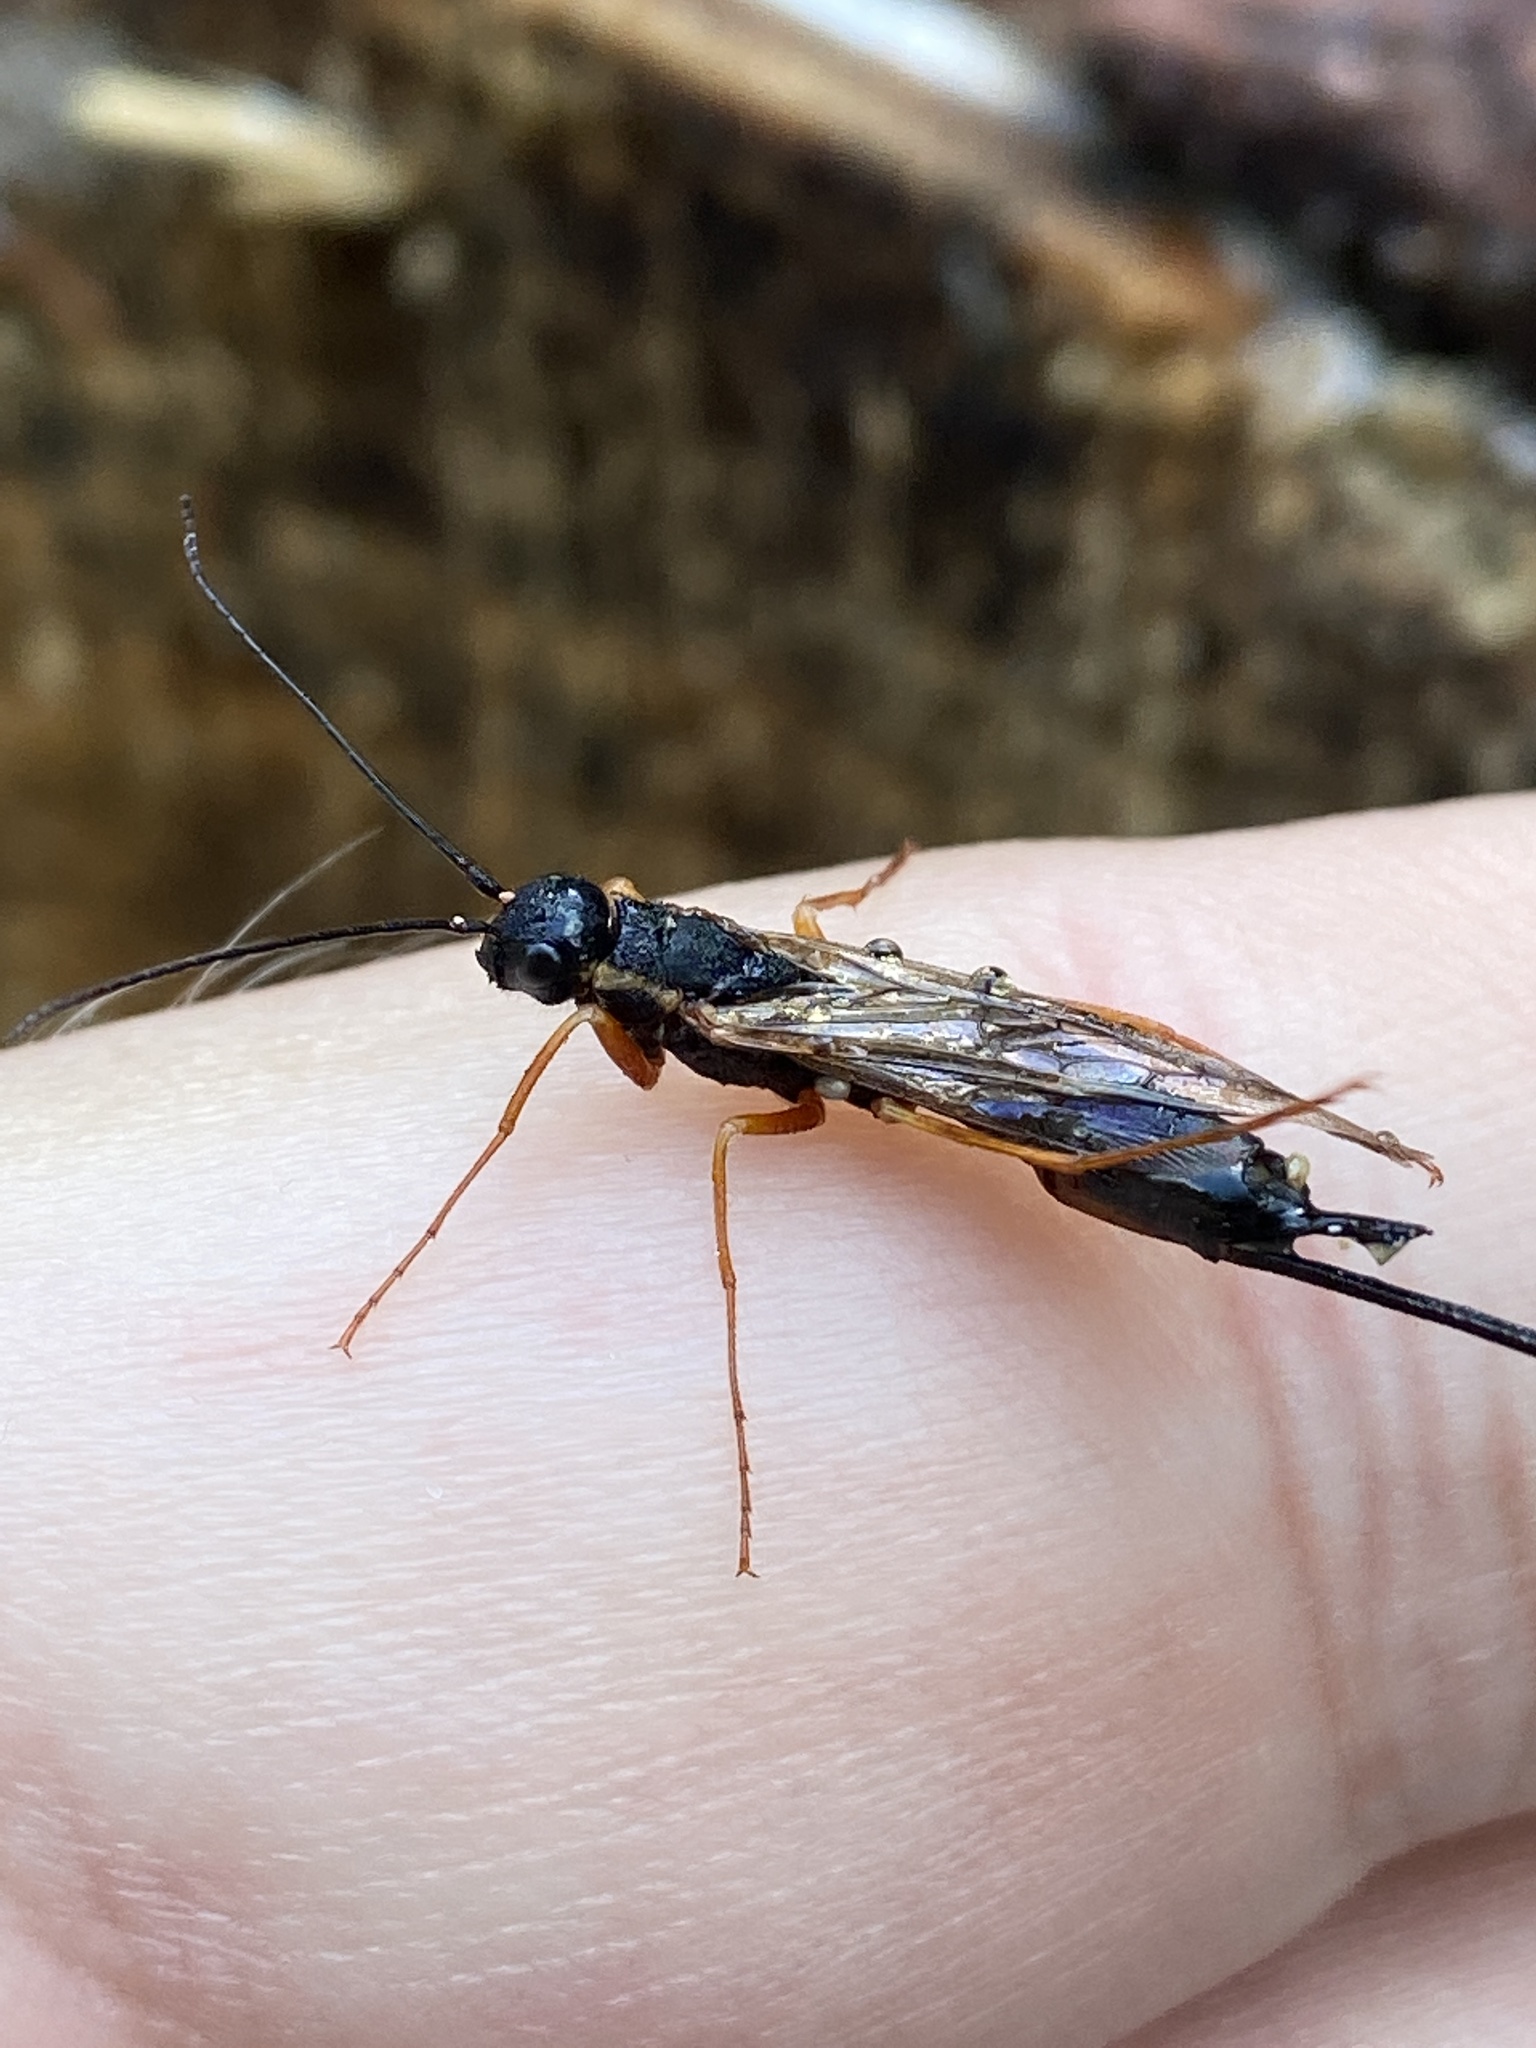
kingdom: Animalia
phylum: Arthropoda
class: Insecta
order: Hymenoptera
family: Siricidae
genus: Xeris
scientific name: Xeris spectrum
